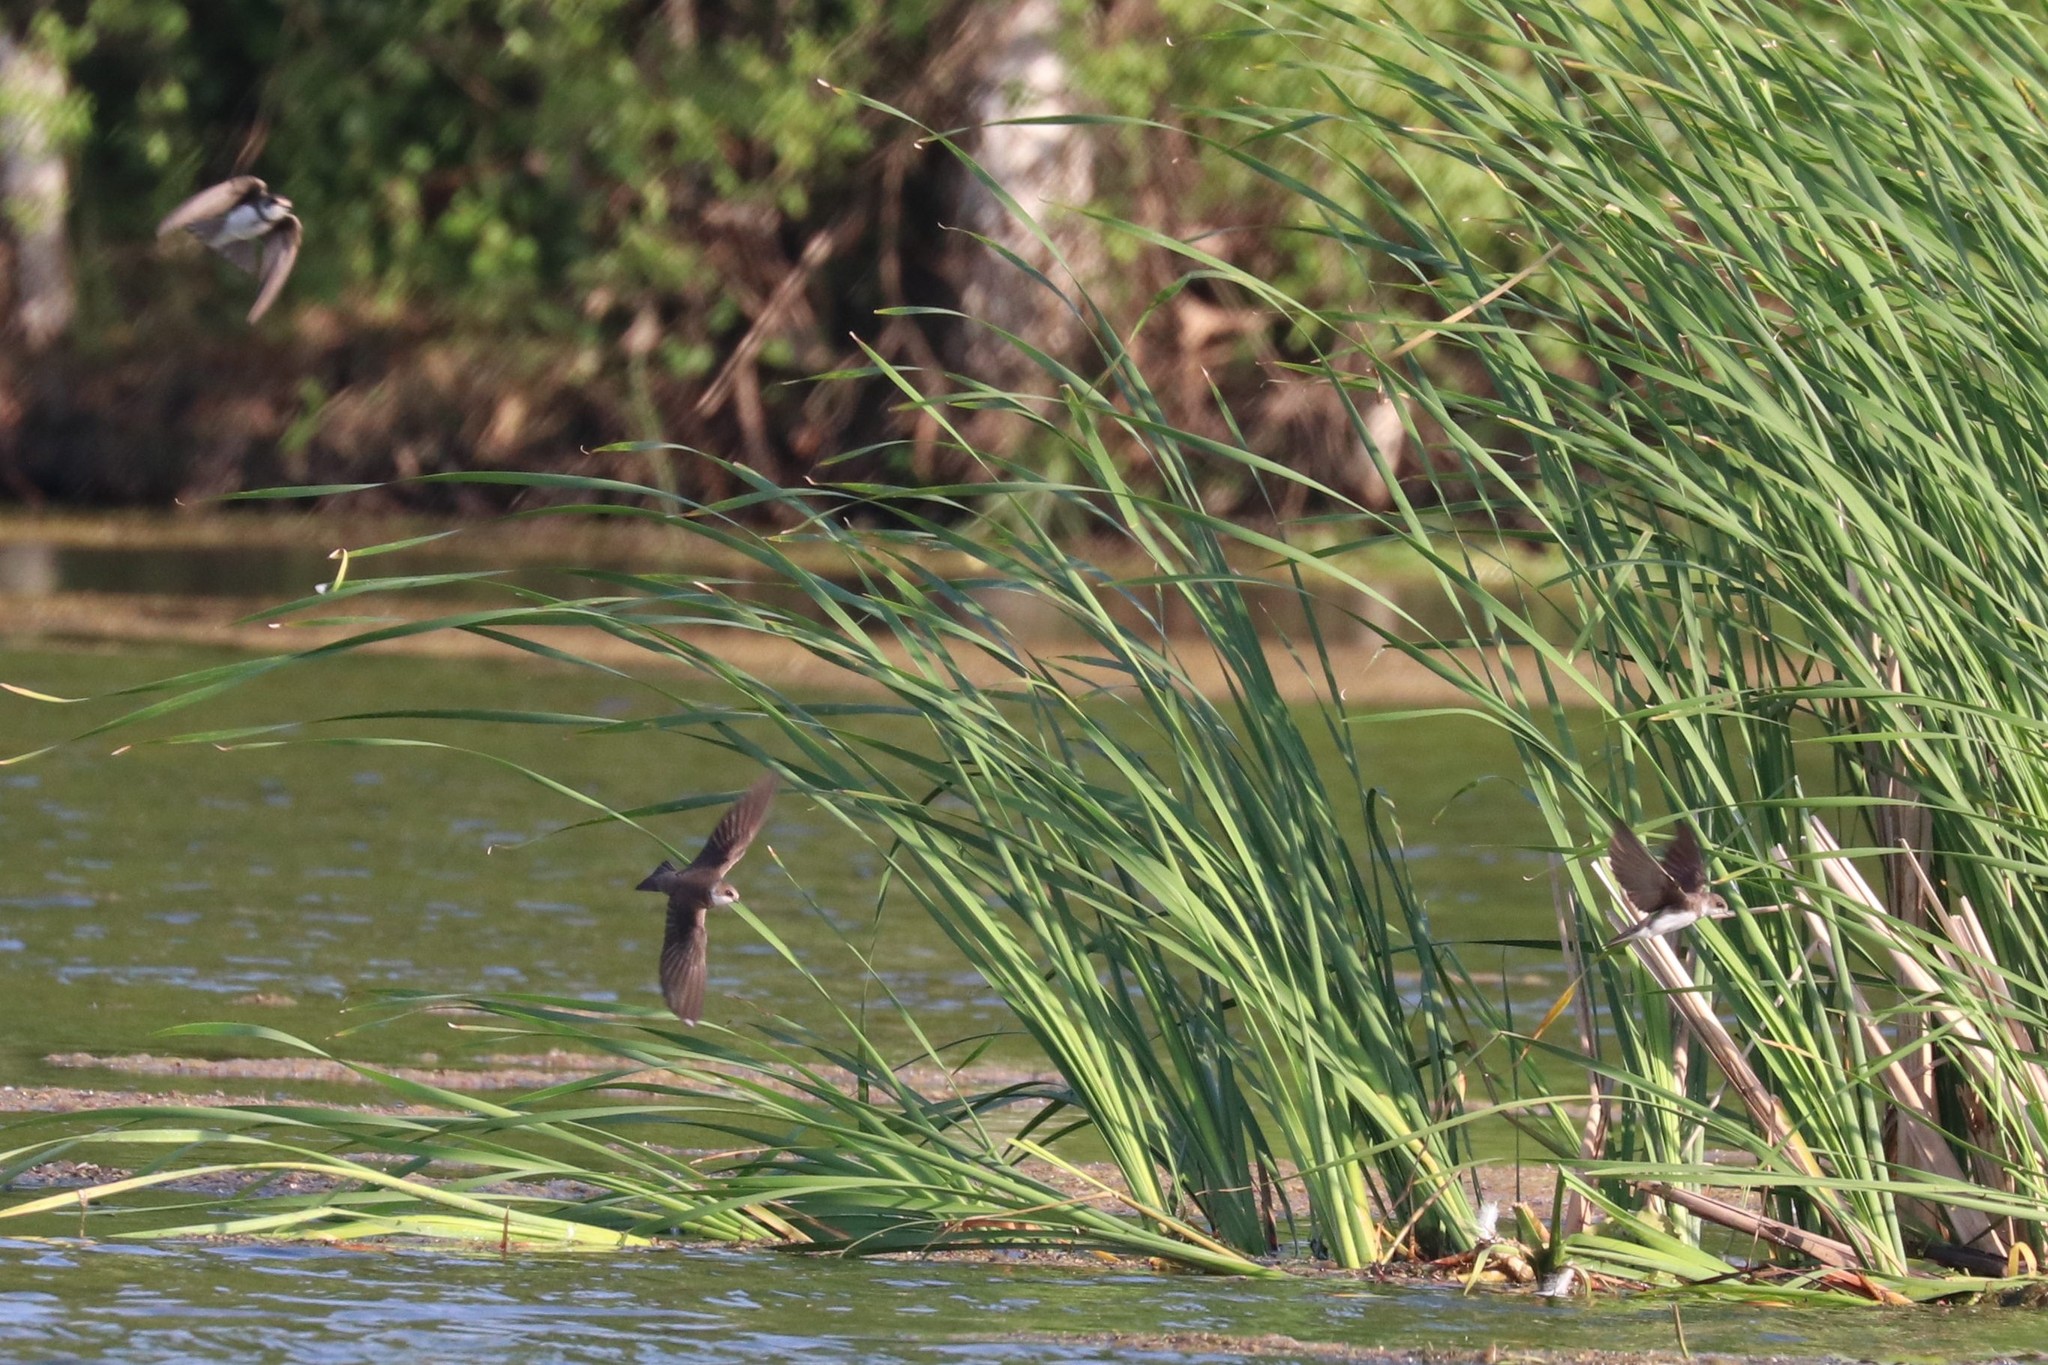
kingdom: Animalia
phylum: Chordata
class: Aves
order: Passeriformes
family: Hirundinidae
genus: Riparia
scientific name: Riparia riparia
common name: Sand martin
